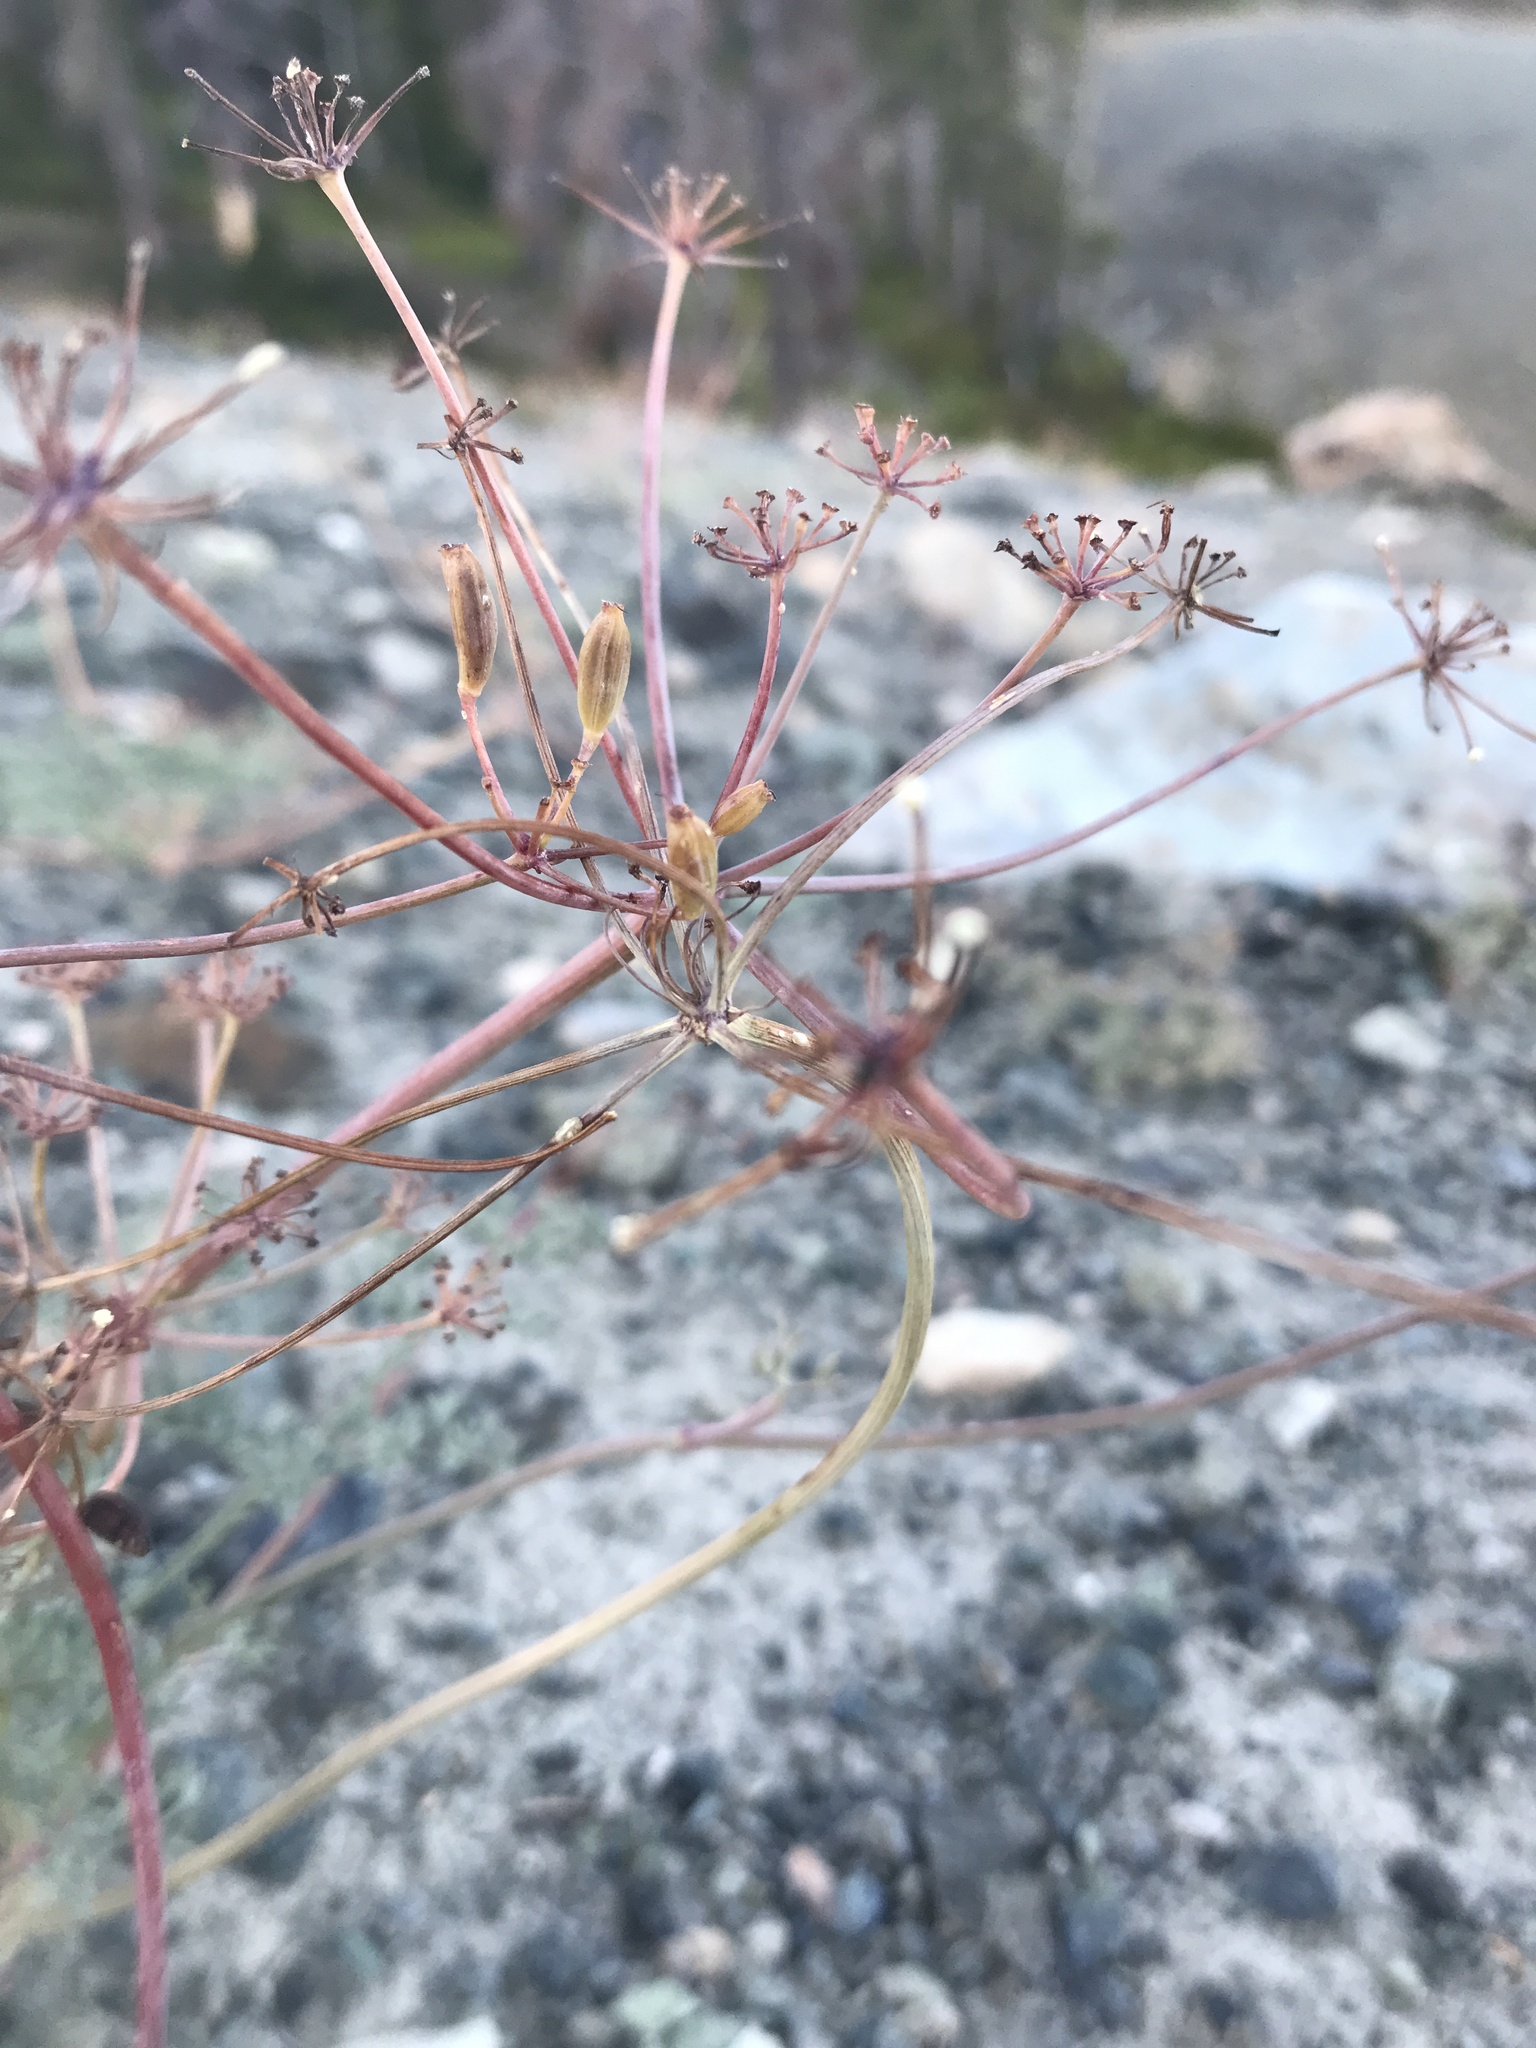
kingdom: Plantae
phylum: Tracheophyta
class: Magnoliopsida
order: Apiales
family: Apiaceae
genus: Lomatium
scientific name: Lomatium cuspidatum
